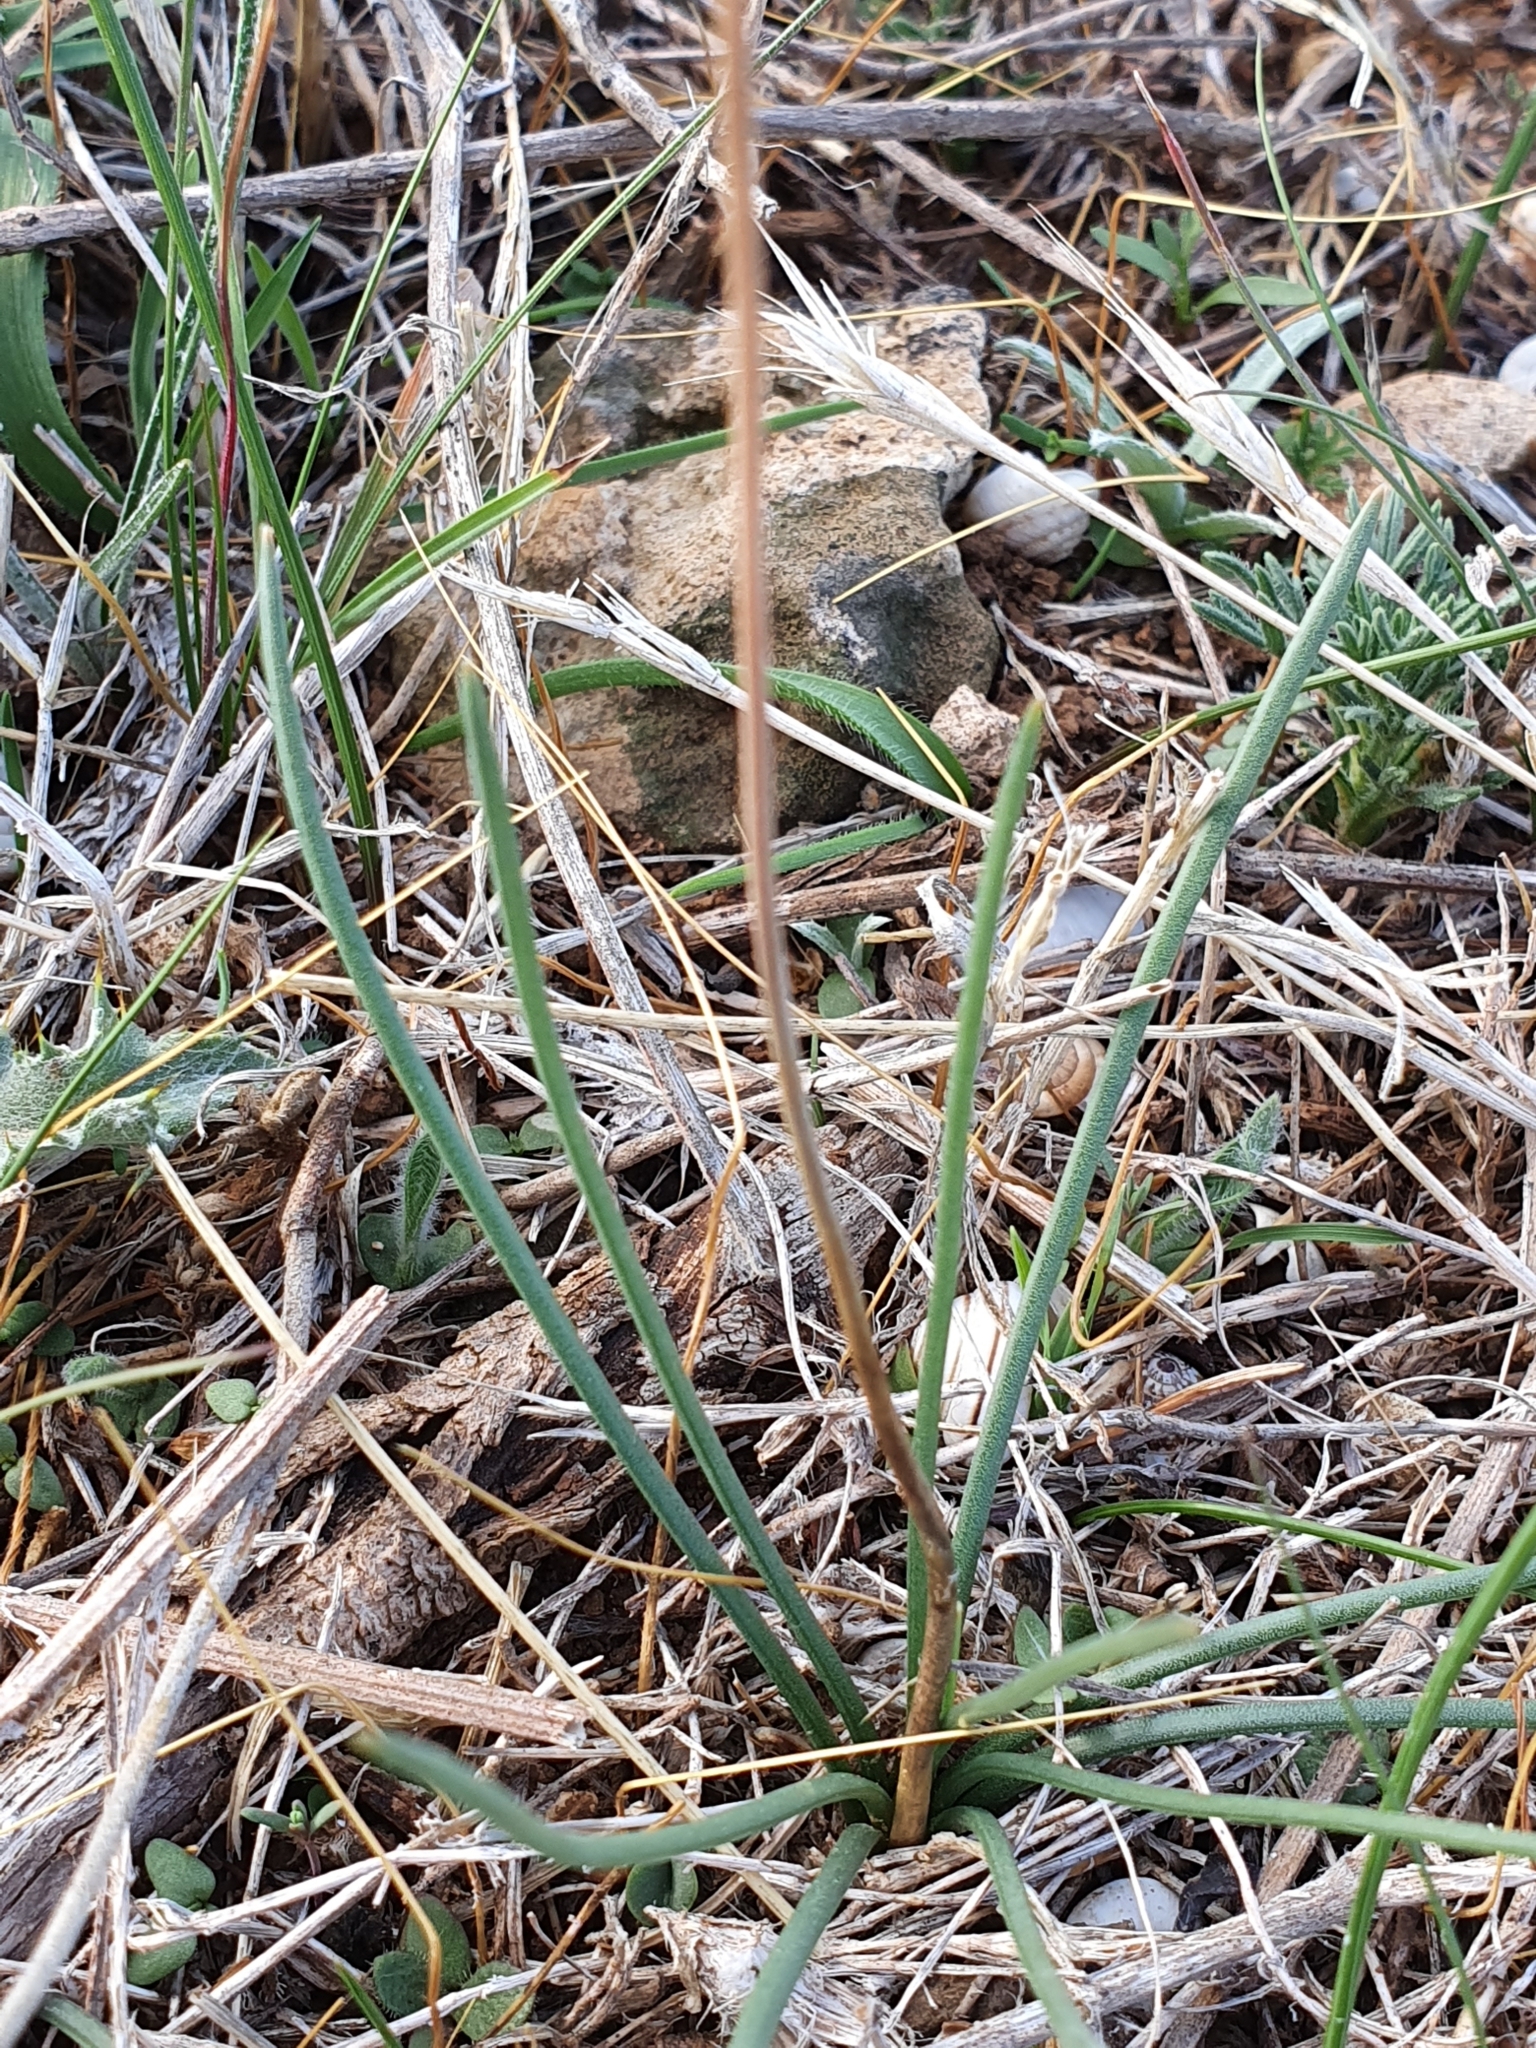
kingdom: Plantae
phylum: Tracheophyta
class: Liliopsida
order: Asparagales
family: Asparagaceae
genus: Drimia
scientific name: Drimia fugax
